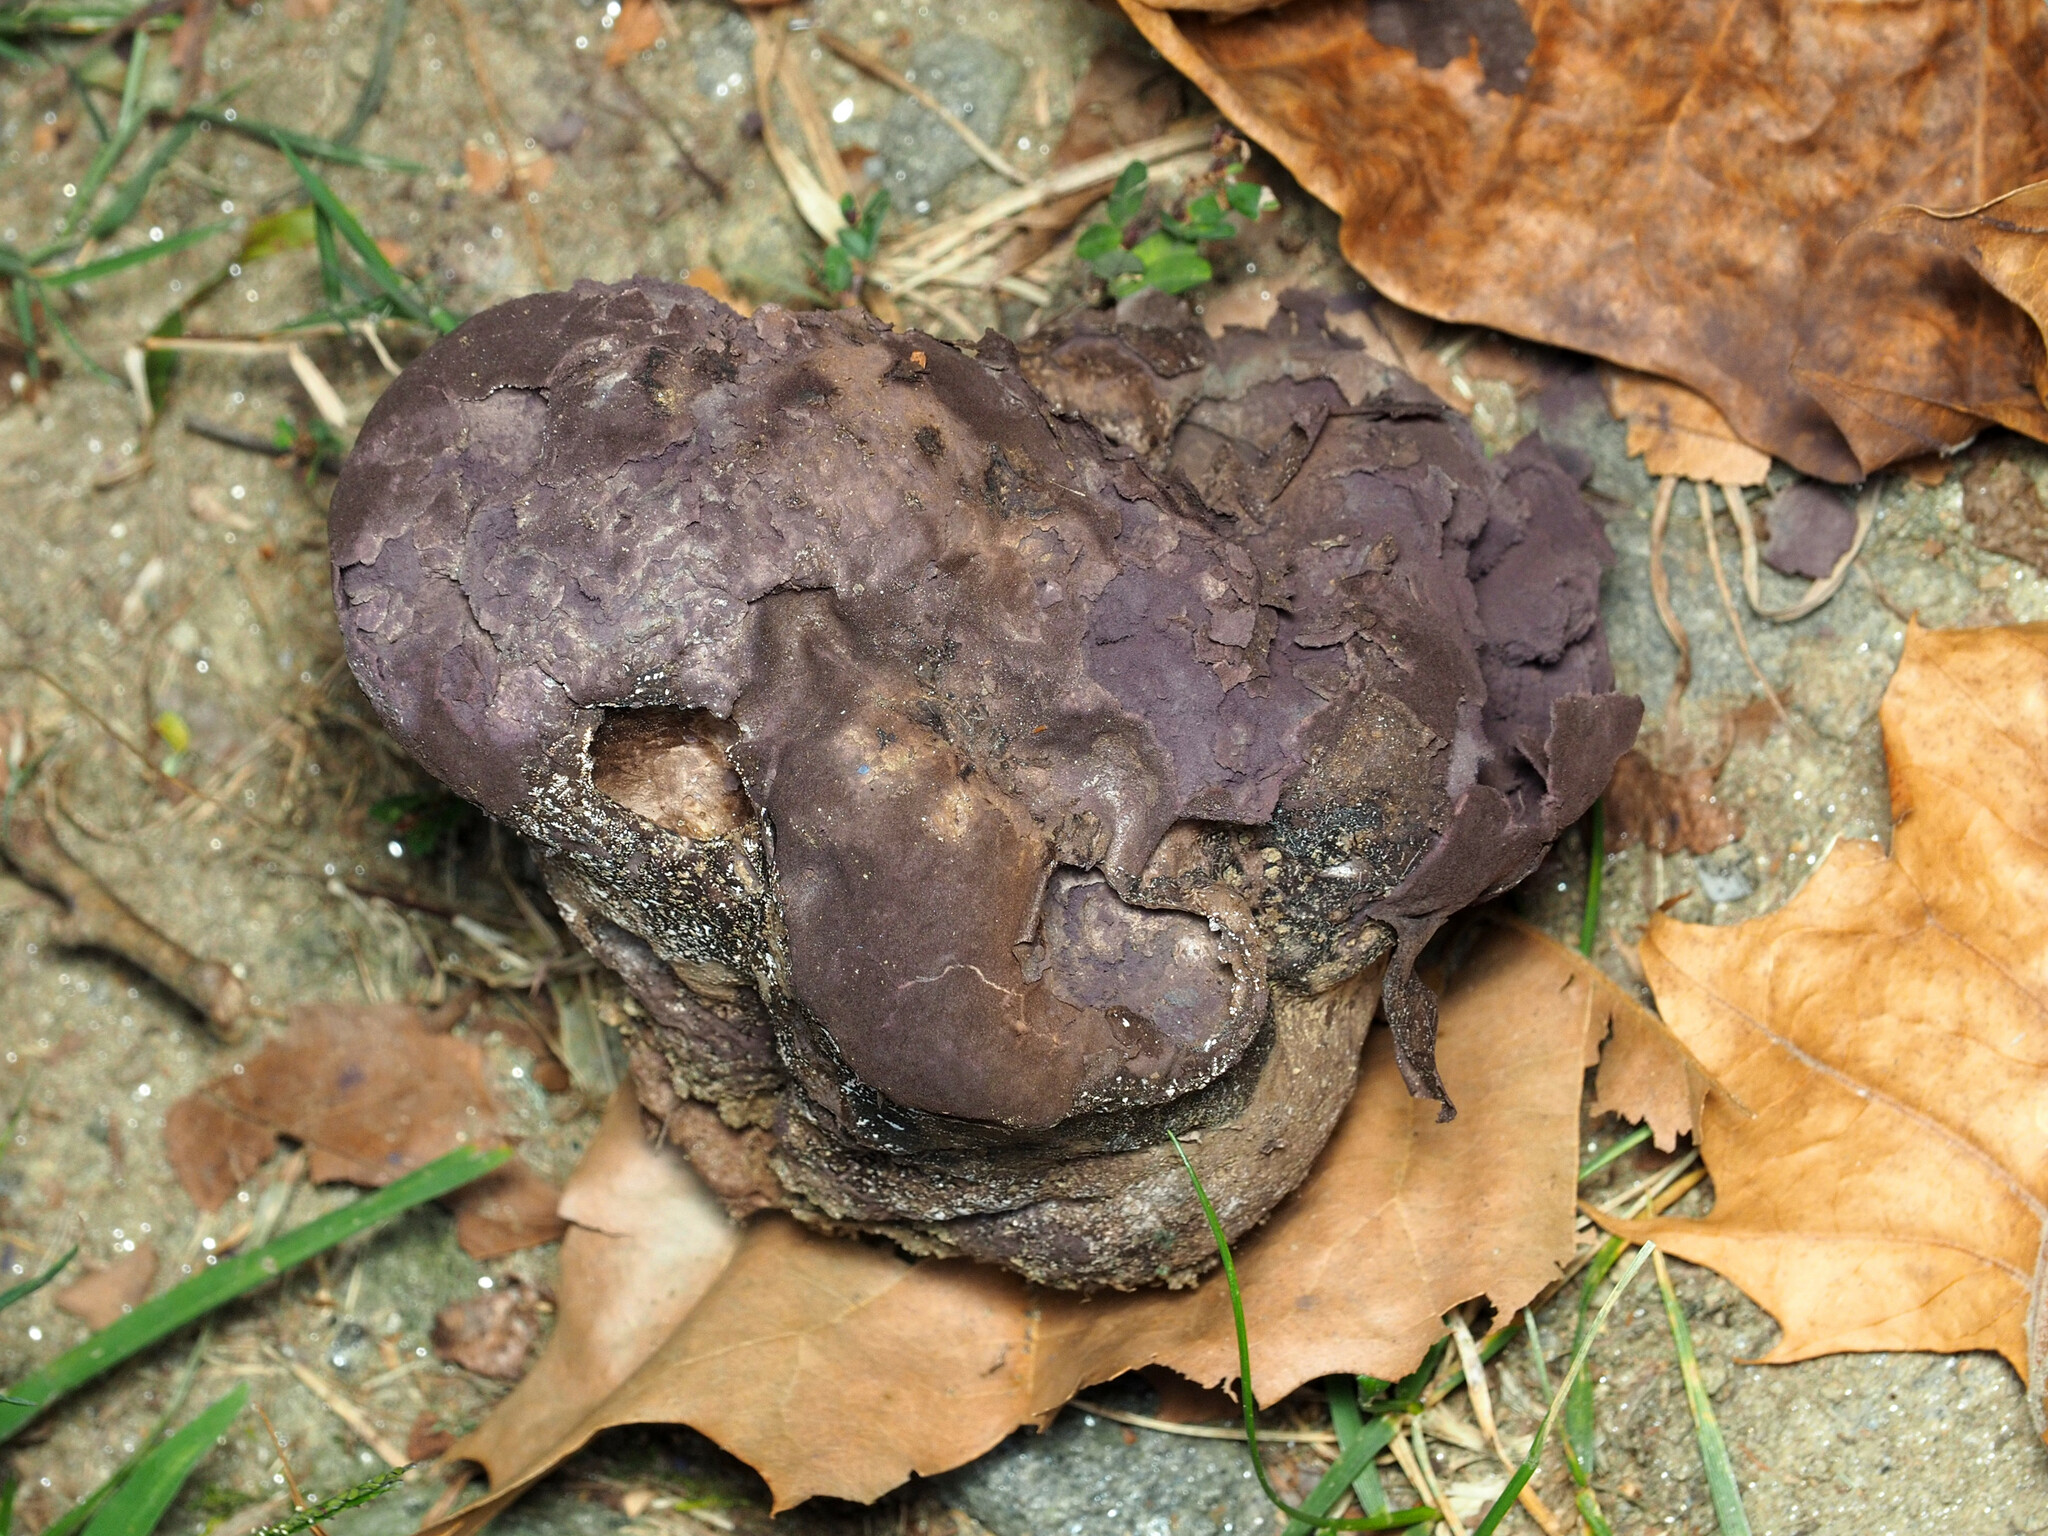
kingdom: Fungi
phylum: Basidiomycota
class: Agaricomycetes
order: Agaricales
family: Lycoperdaceae
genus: Calvatia
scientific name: Calvatia cyathiformis
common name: Purple-spored puffball
